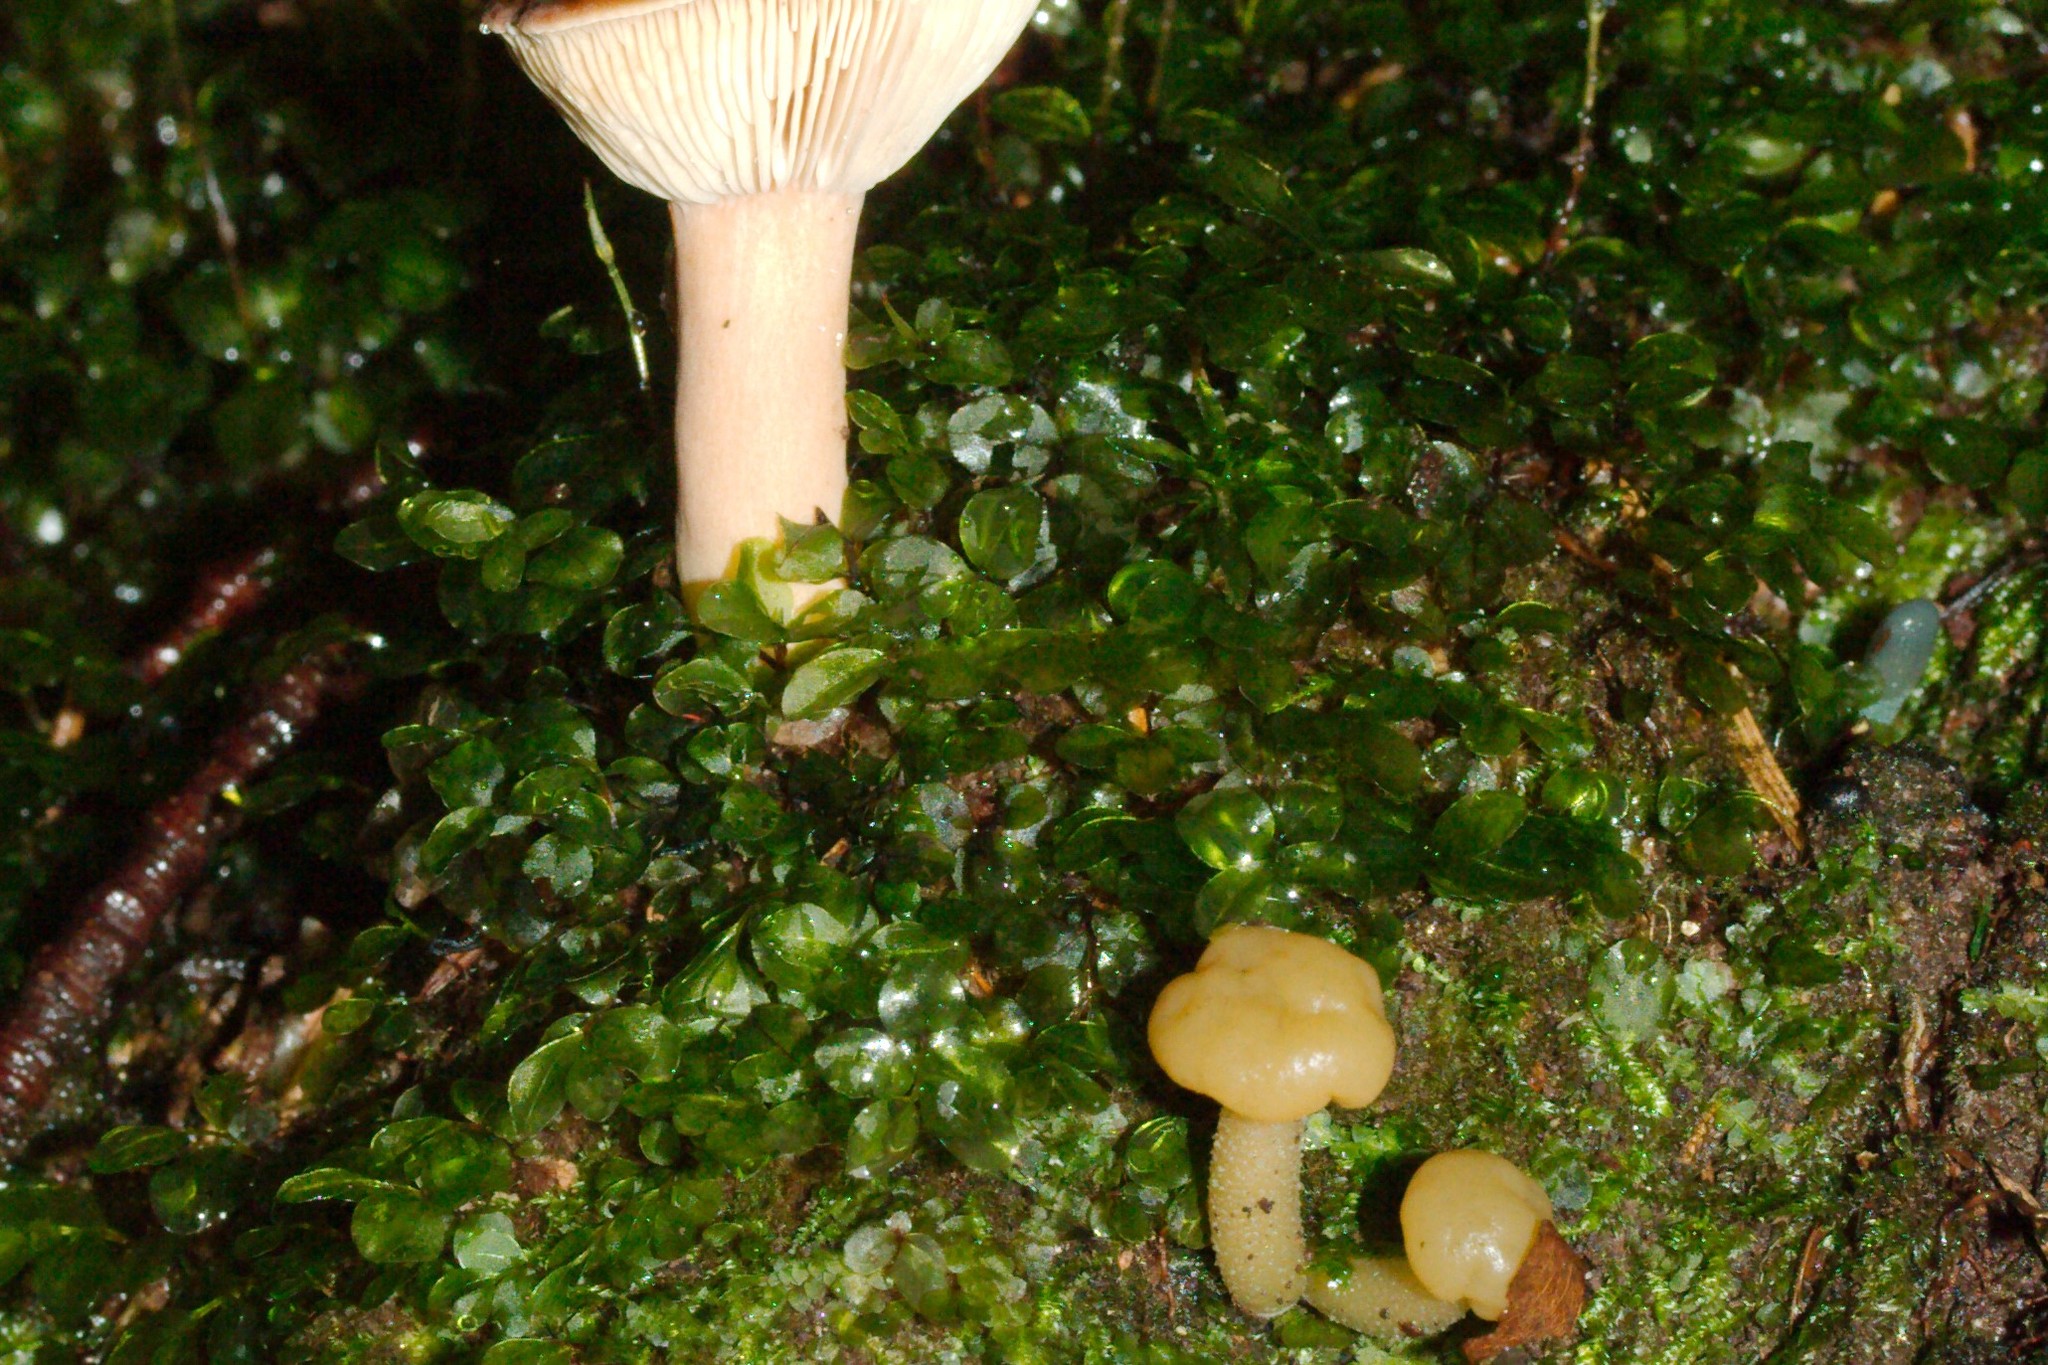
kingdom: Plantae
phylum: Bryophyta
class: Bryopsida
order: Bryales
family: Mniaceae
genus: Rhizomnium
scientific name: Rhizomnium punctatum
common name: Dotted leafy moss
